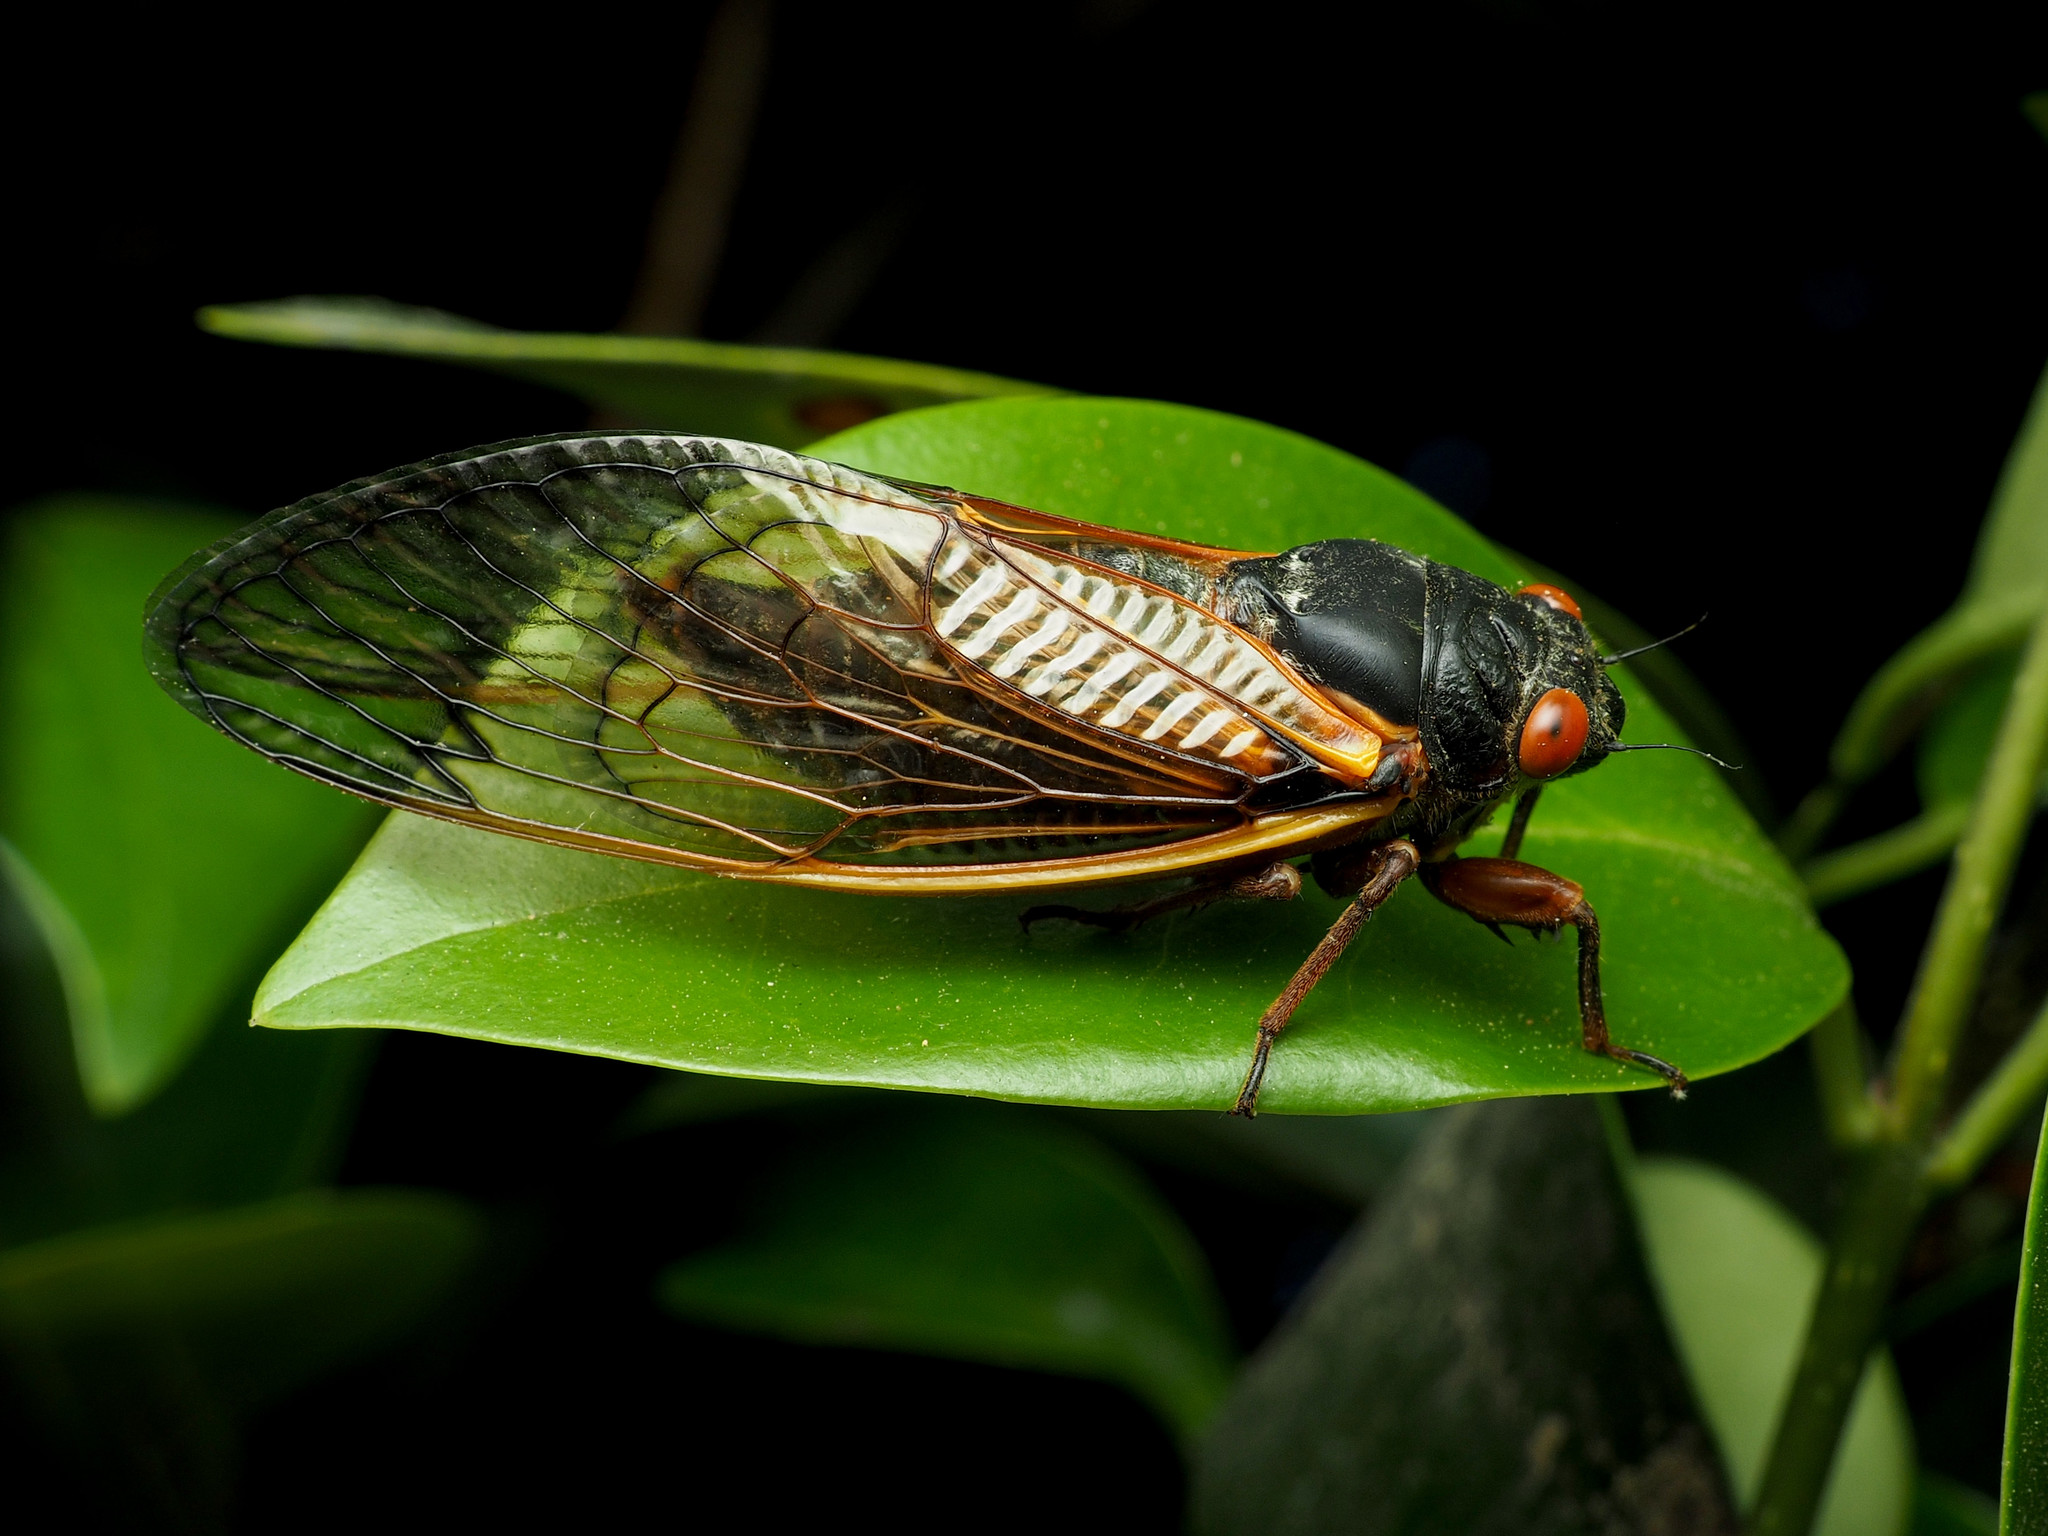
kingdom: Animalia
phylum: Arthropoda
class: Insecta
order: Hemiptera
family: Cicadidae
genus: Magicicada
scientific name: Magicicada septendecim
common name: Periodical cicada
